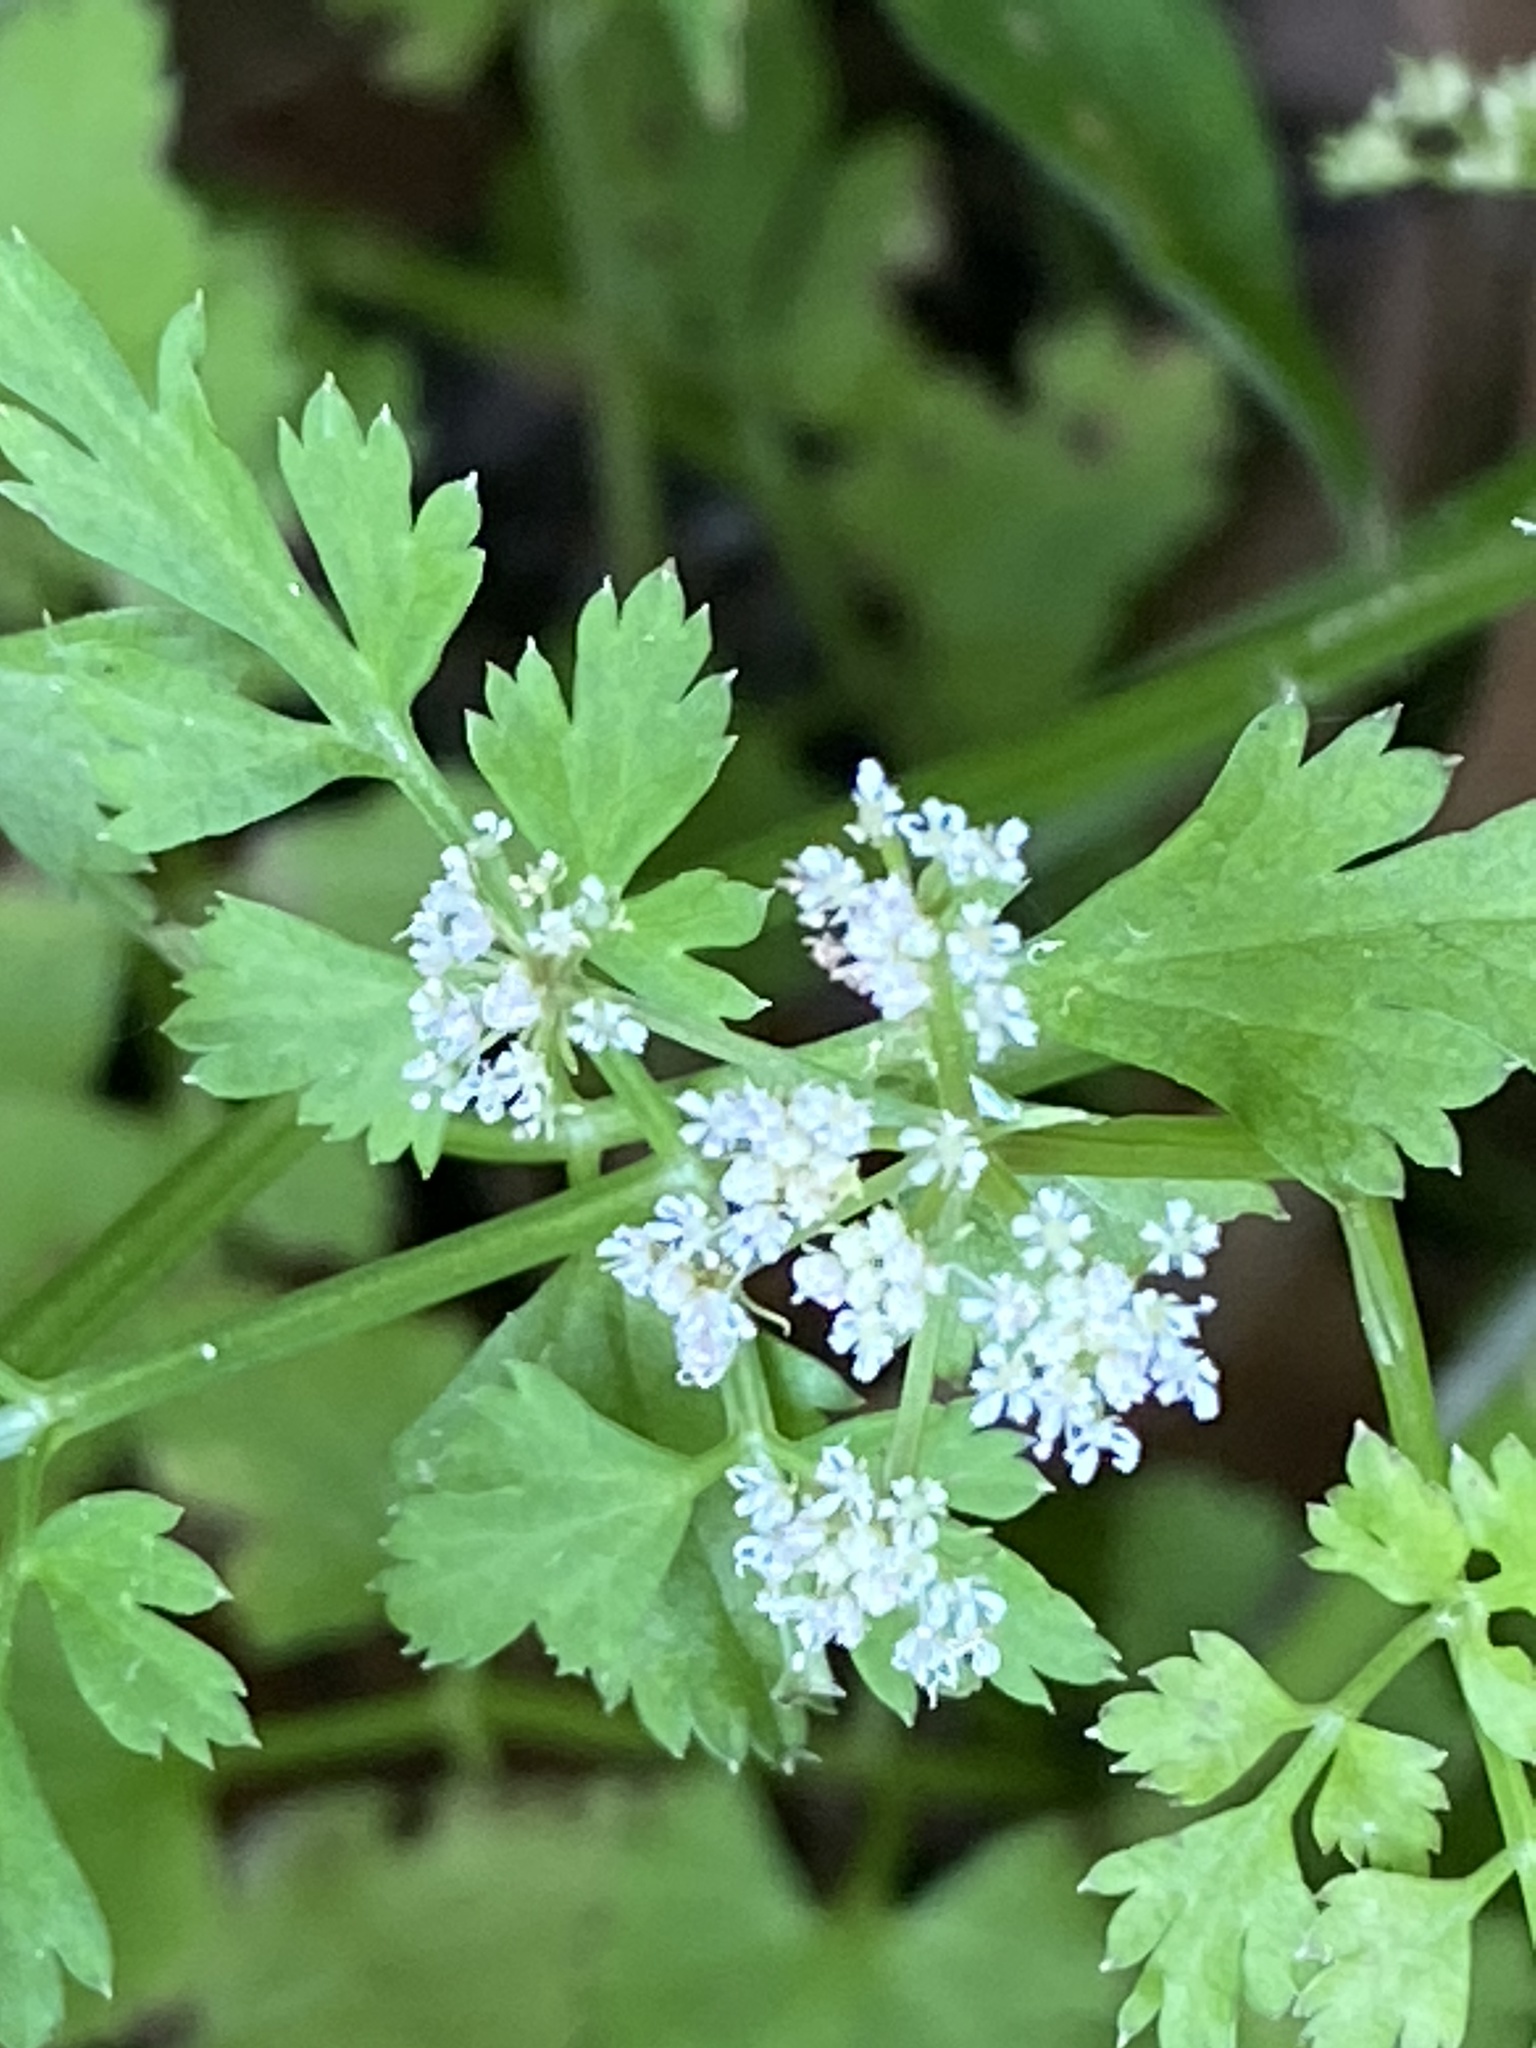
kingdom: Plantae
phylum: Tracheophyta
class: Magnoliopsida
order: Apiales
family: Apiaceae
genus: Oenanthe
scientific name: Oenanthe javanica
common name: Java water-dropwort
